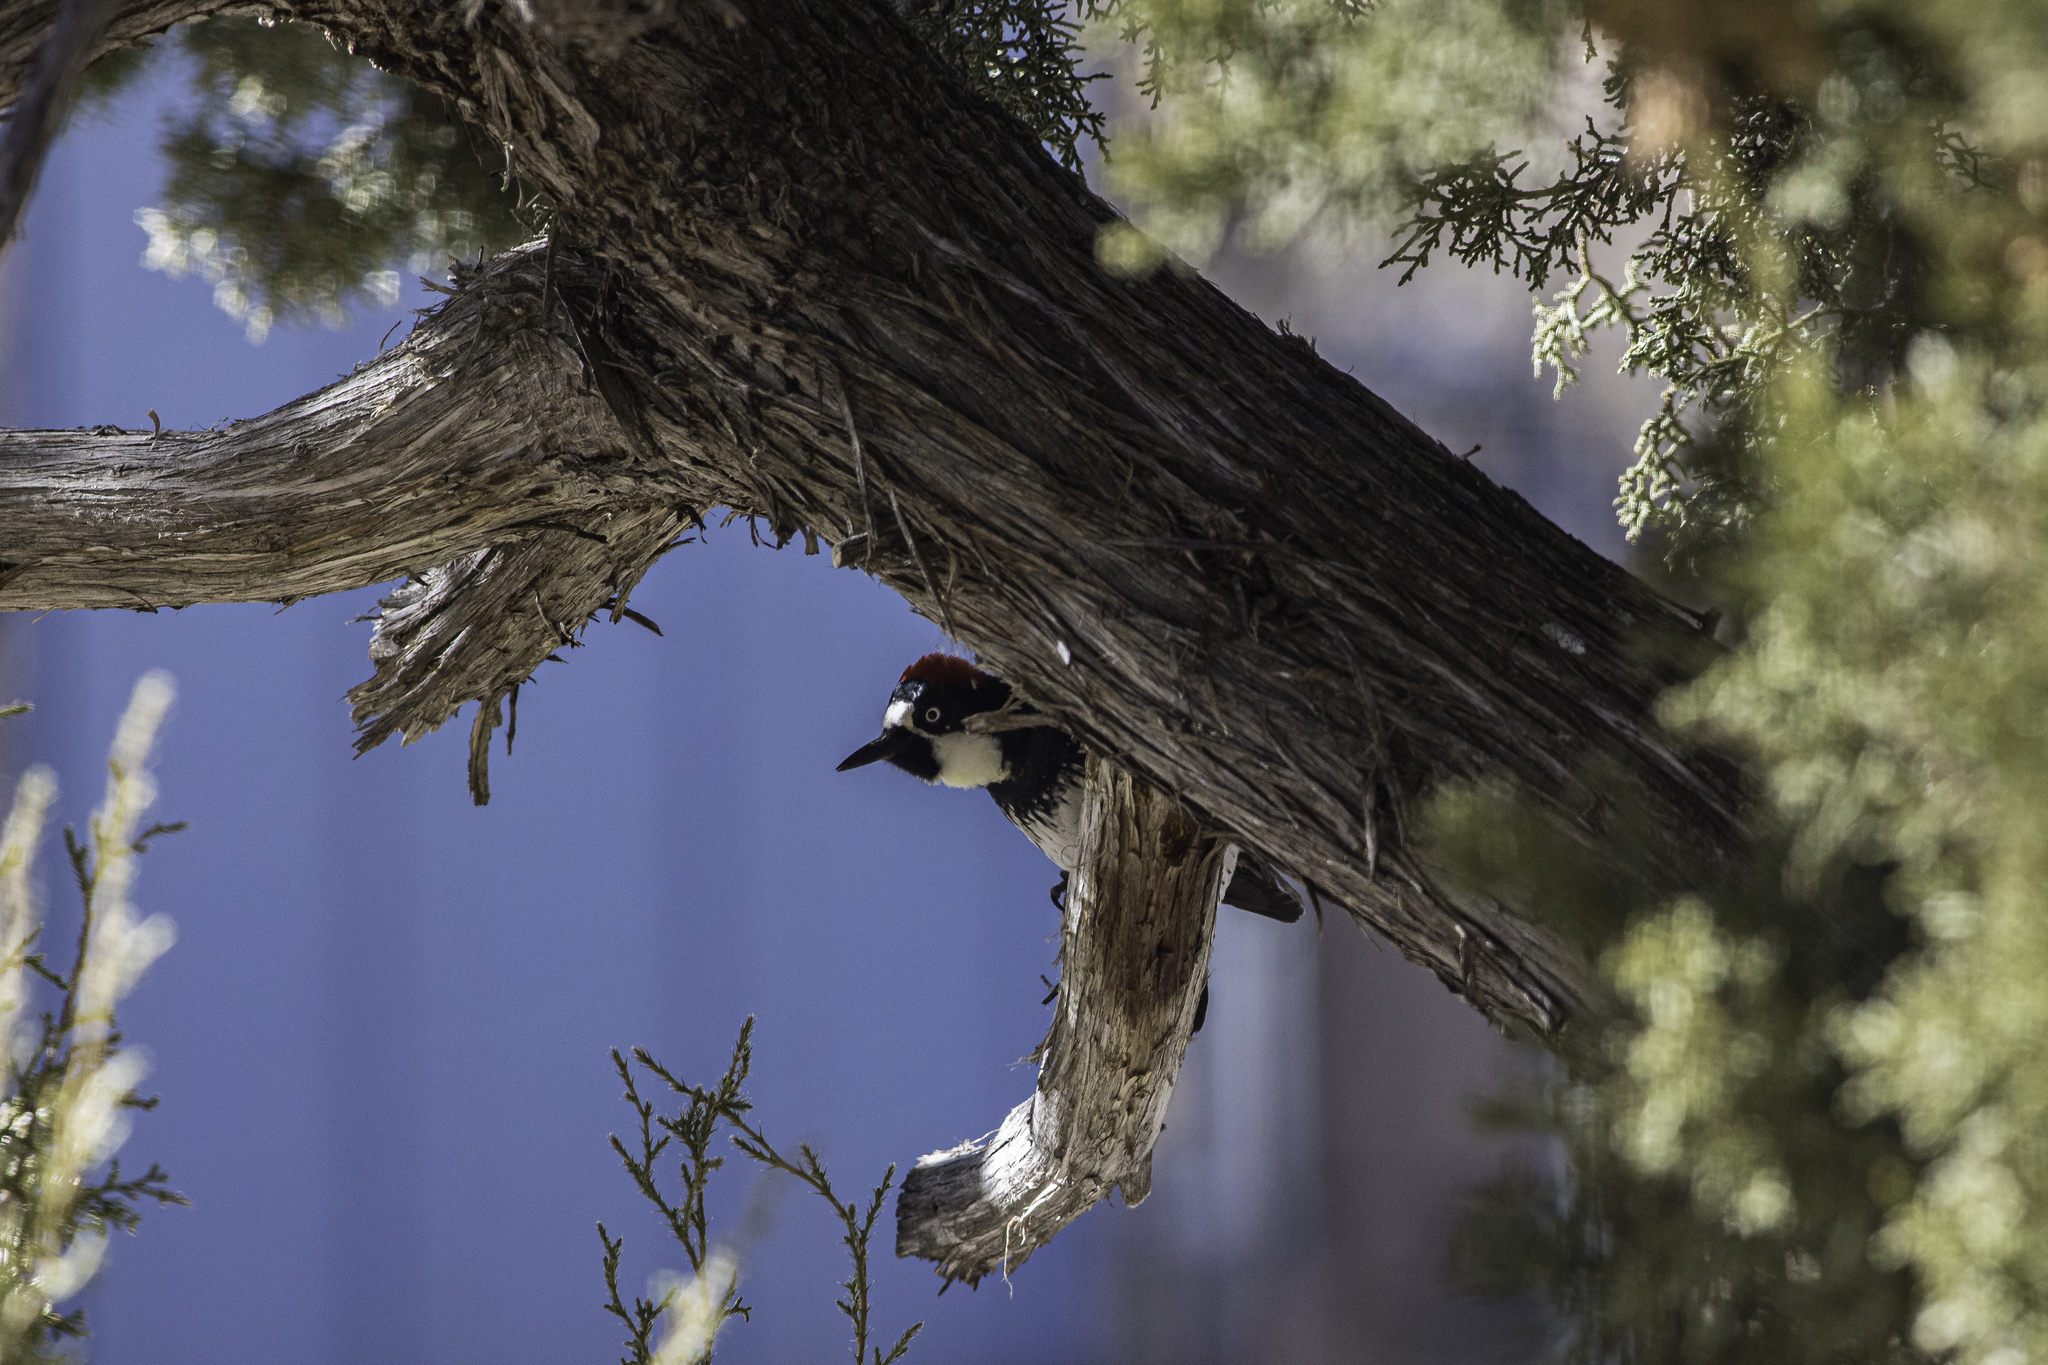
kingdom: Animalia
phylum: Chordata
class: Aves
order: Piciformes
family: Picidae
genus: Melanerpes
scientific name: Melanerpes formicivorus
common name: Acorn woodpecker
